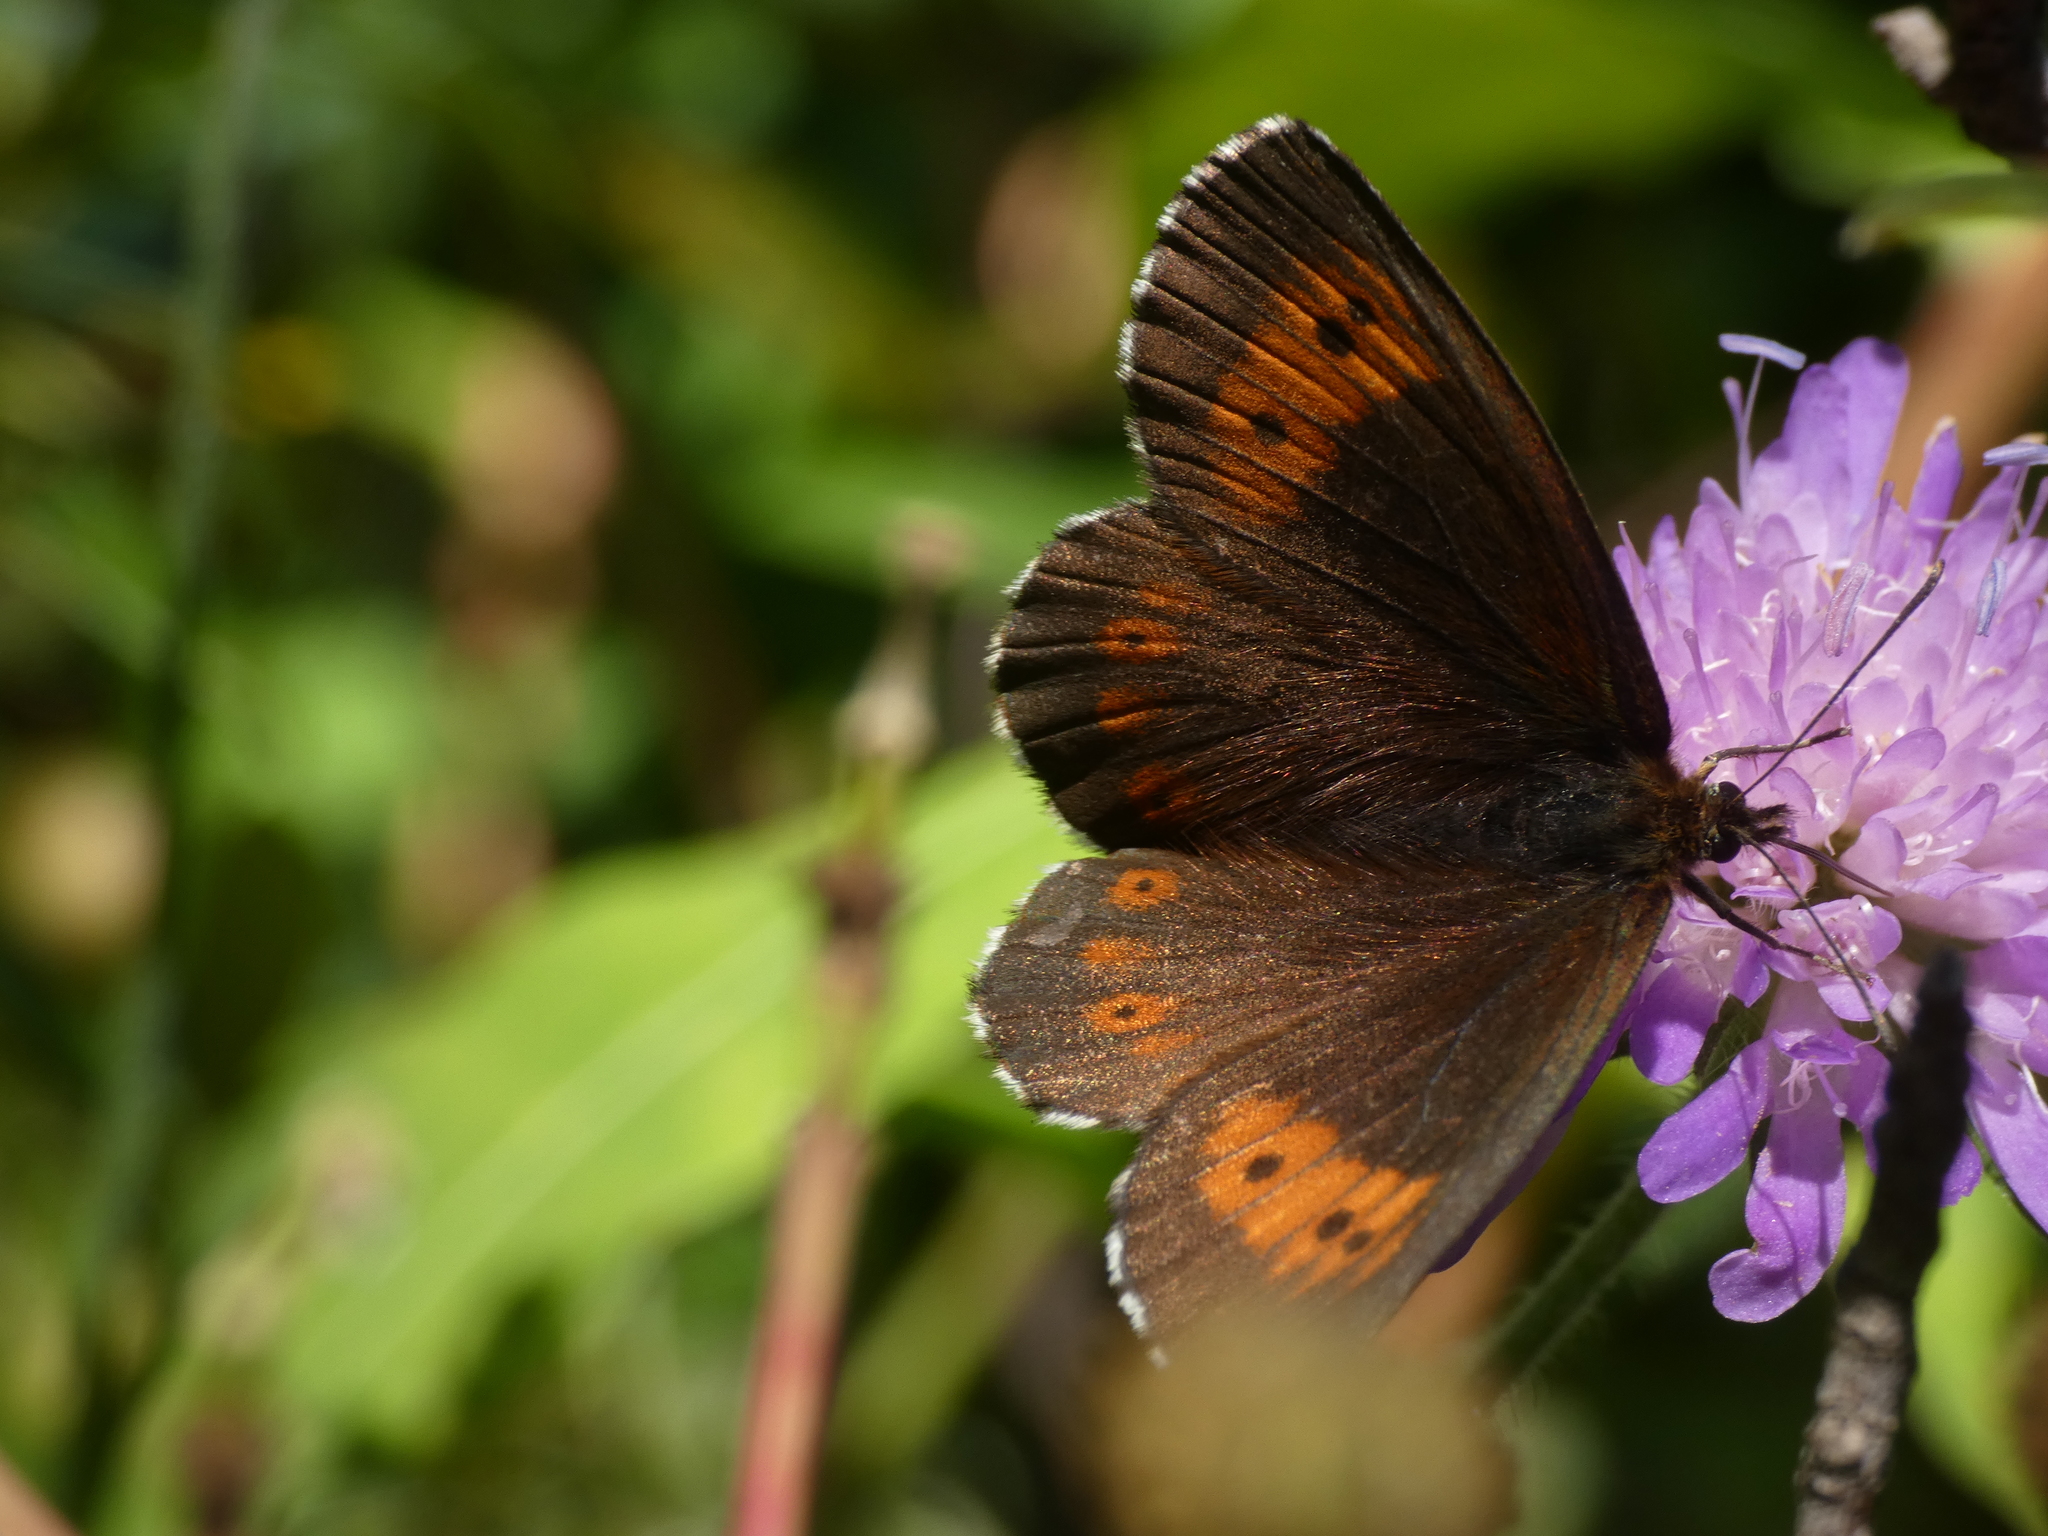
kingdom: Animalia
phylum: Arthropoda
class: Insecta
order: Lepidoptera
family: Nymphalidae
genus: Erebia
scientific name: Erebia euryale
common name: Large ringlet
